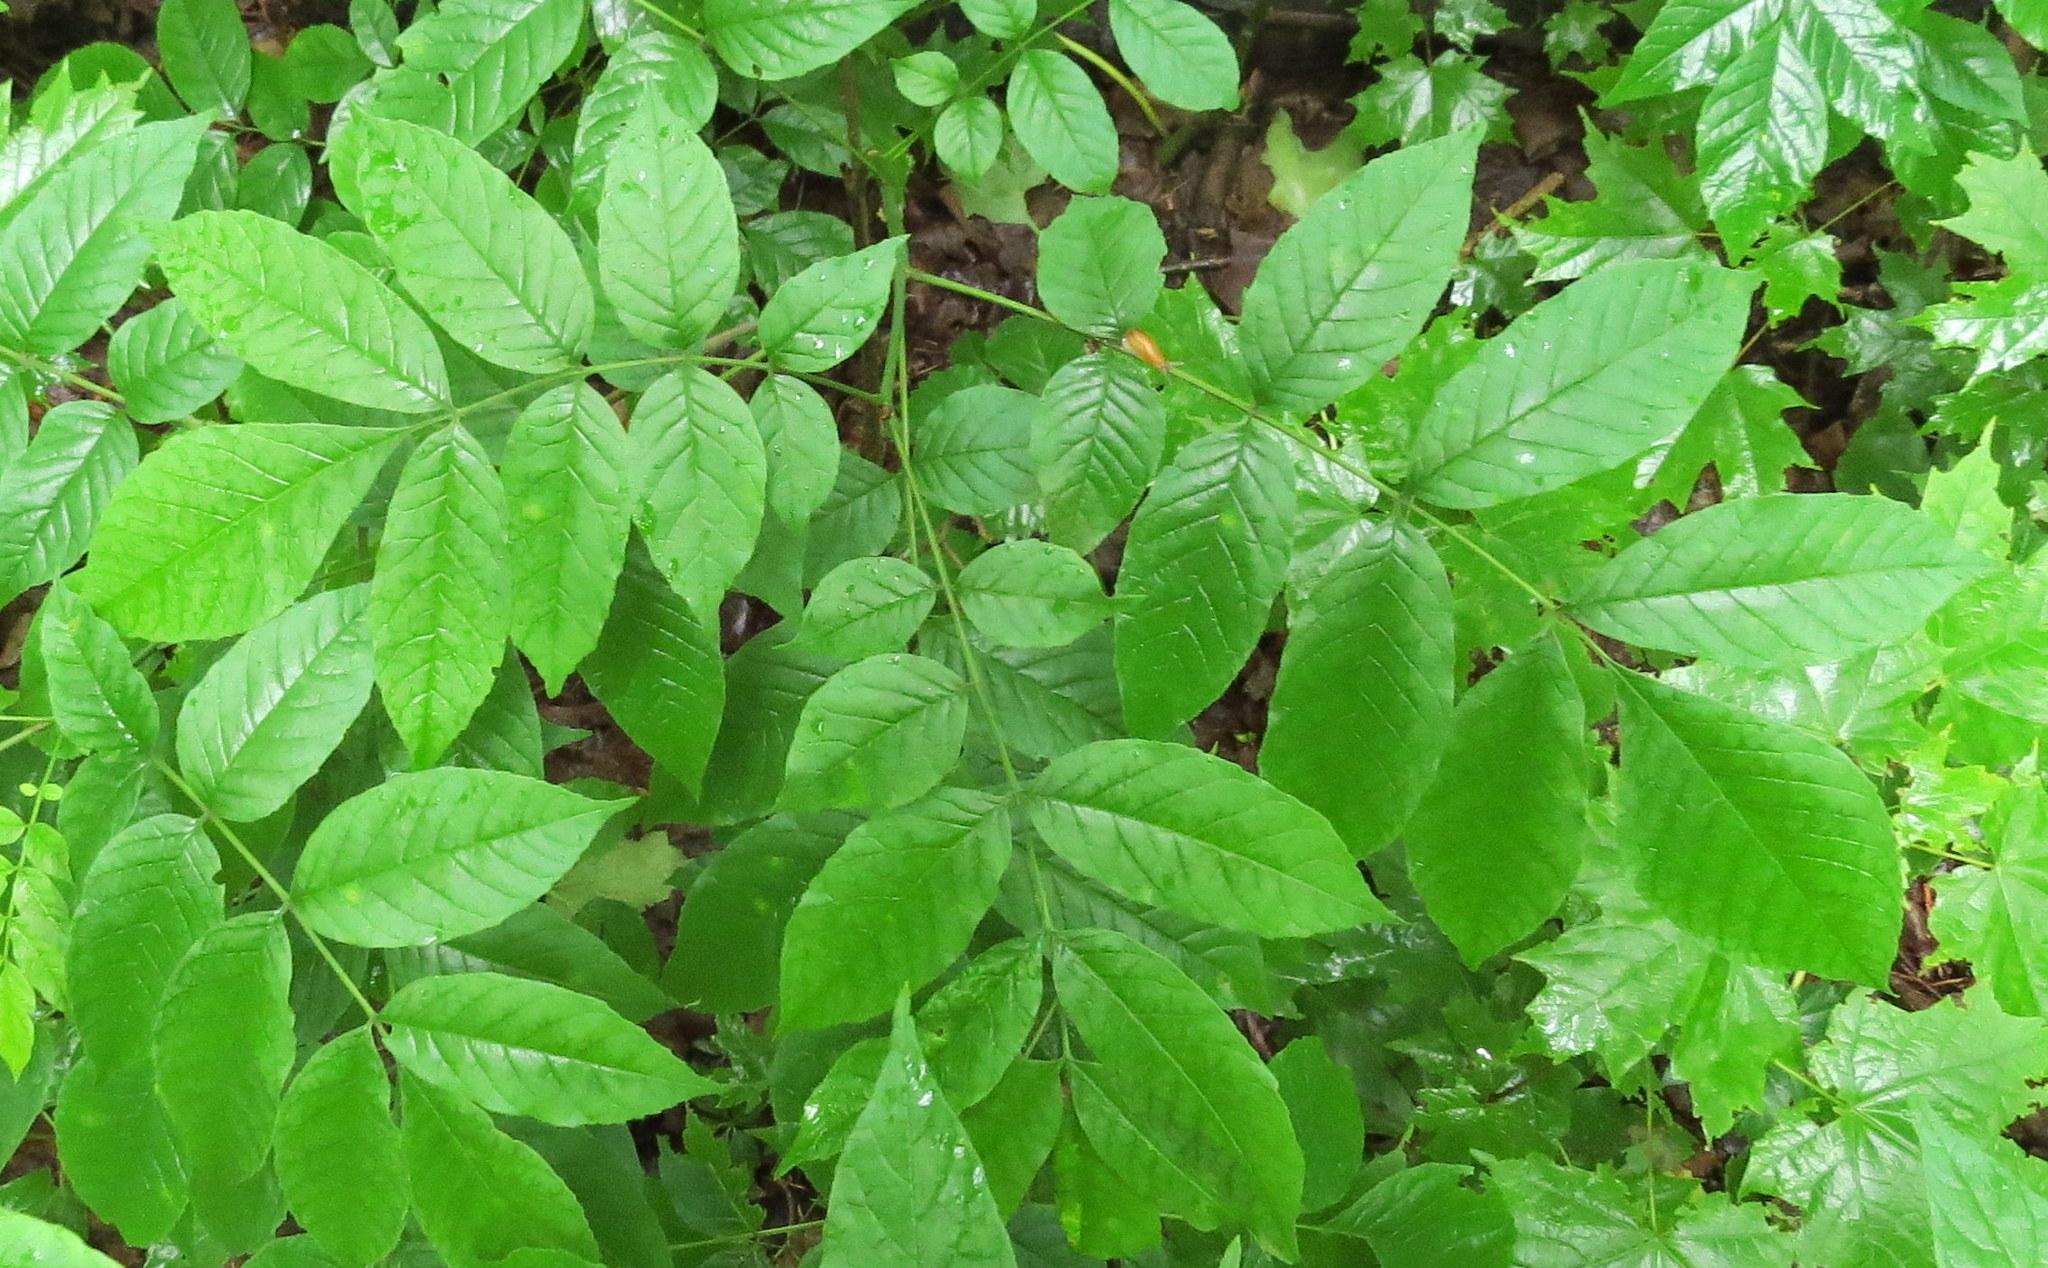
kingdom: Plantae
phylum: Tracheophyta
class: Magnoliopsida
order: Lamiales
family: Oleaceae
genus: Fraxinus
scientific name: Fraxinus nigra
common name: Black ash
